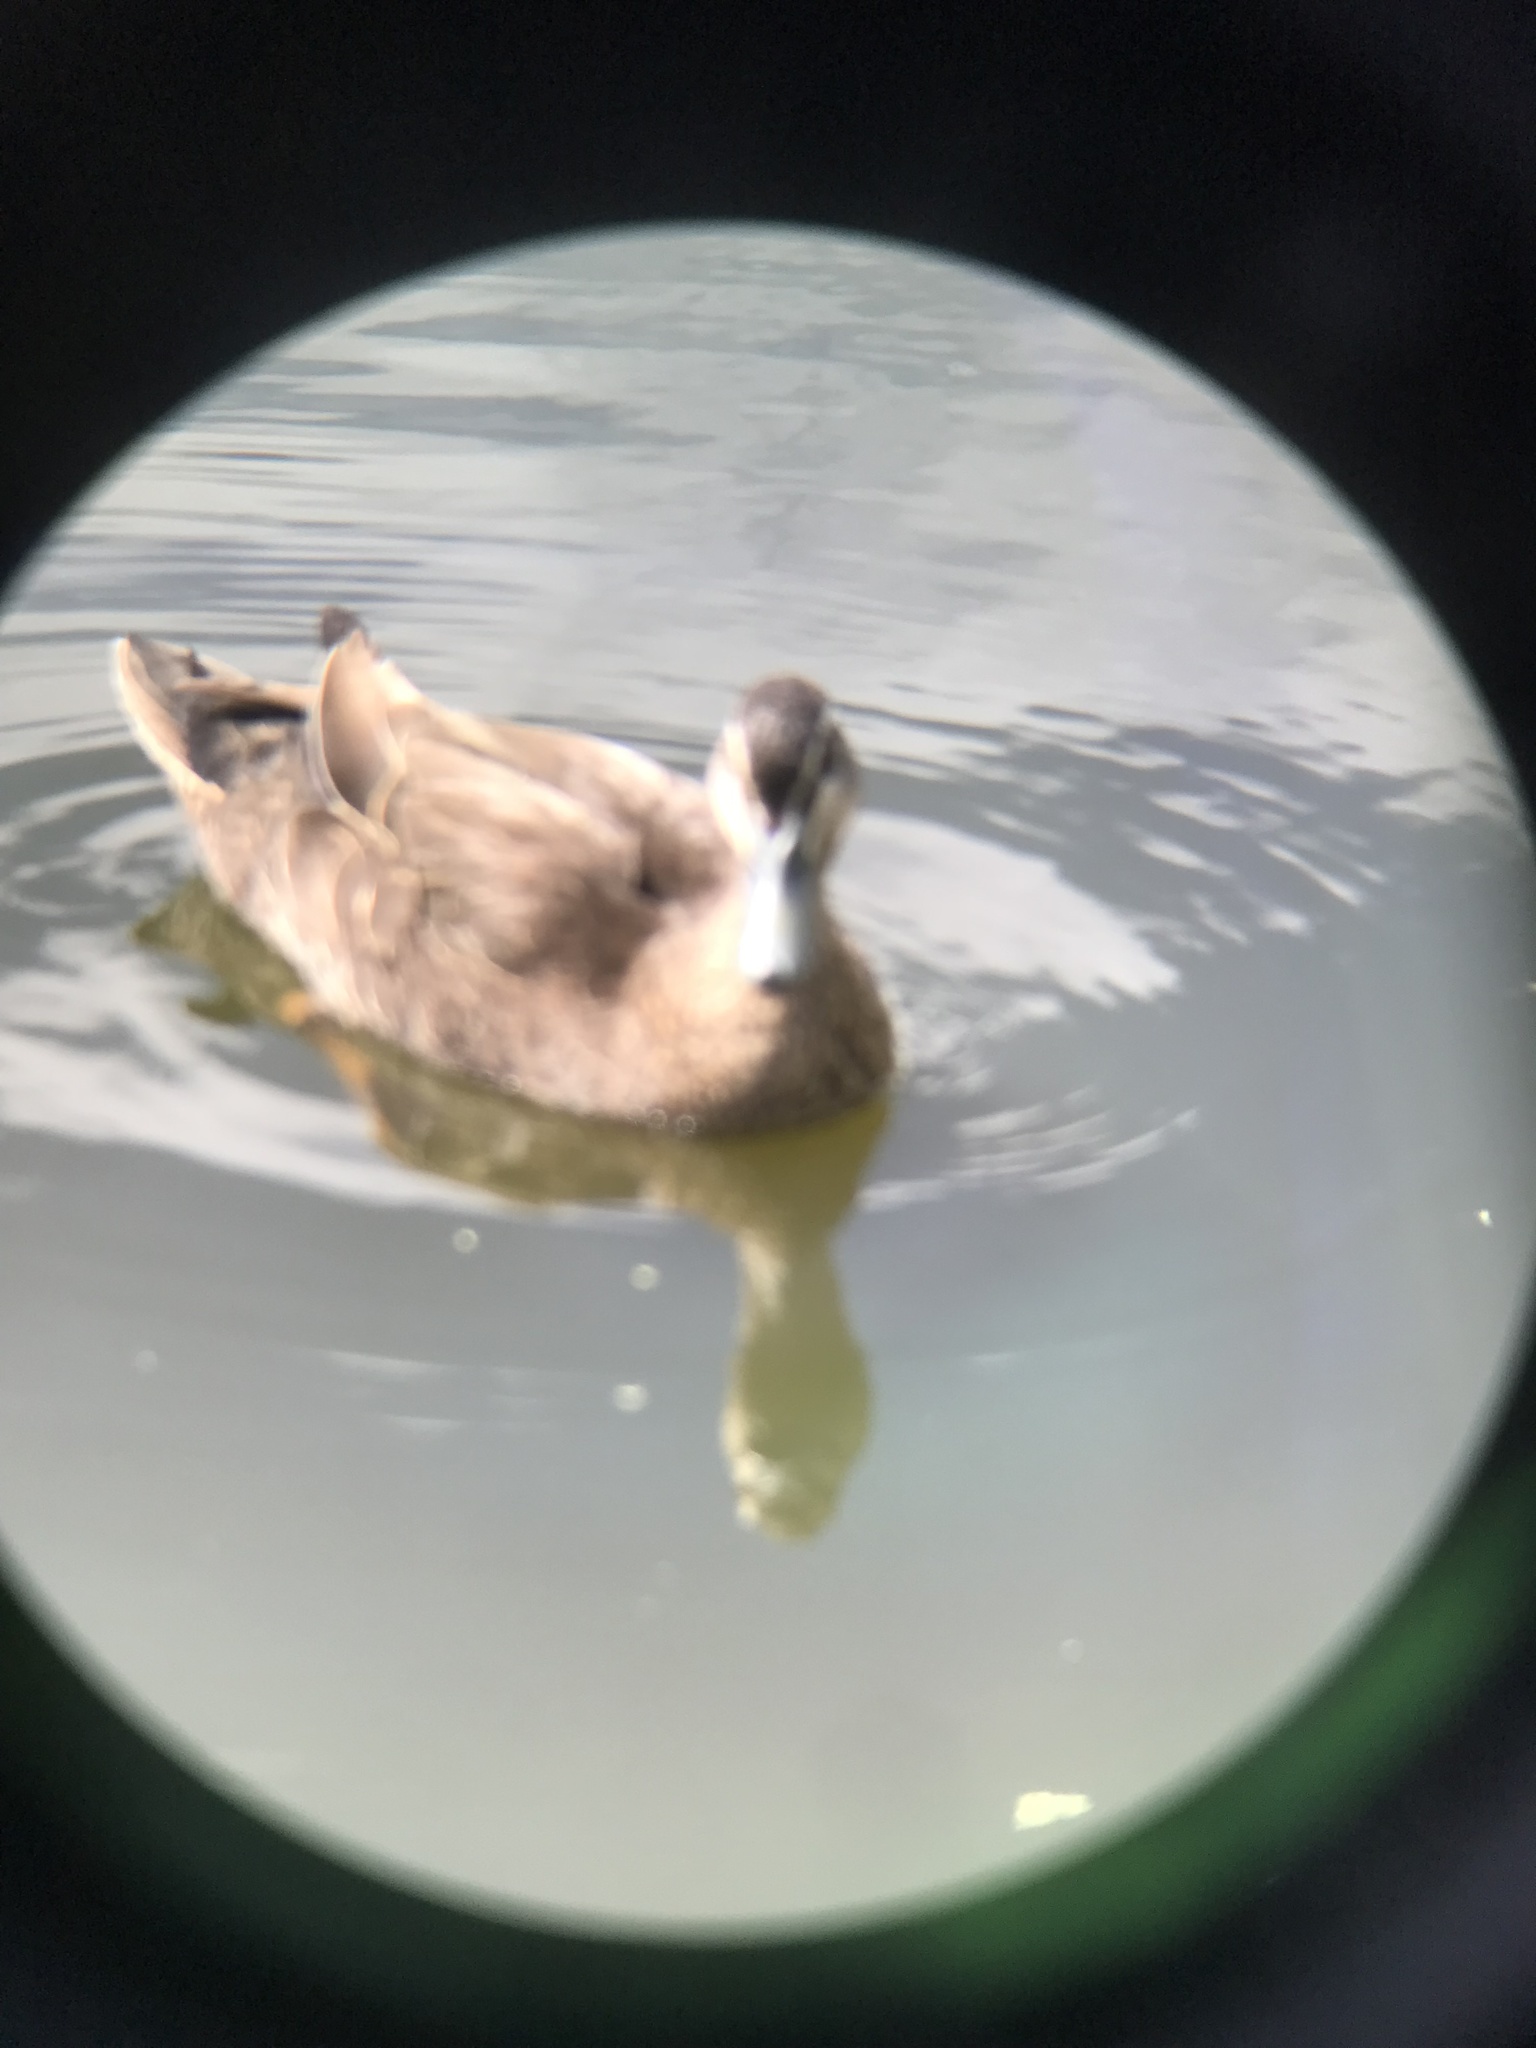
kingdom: Animalia
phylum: Chordata
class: Aves
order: Anseriformes
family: Anatidae
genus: Anas
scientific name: Anas
